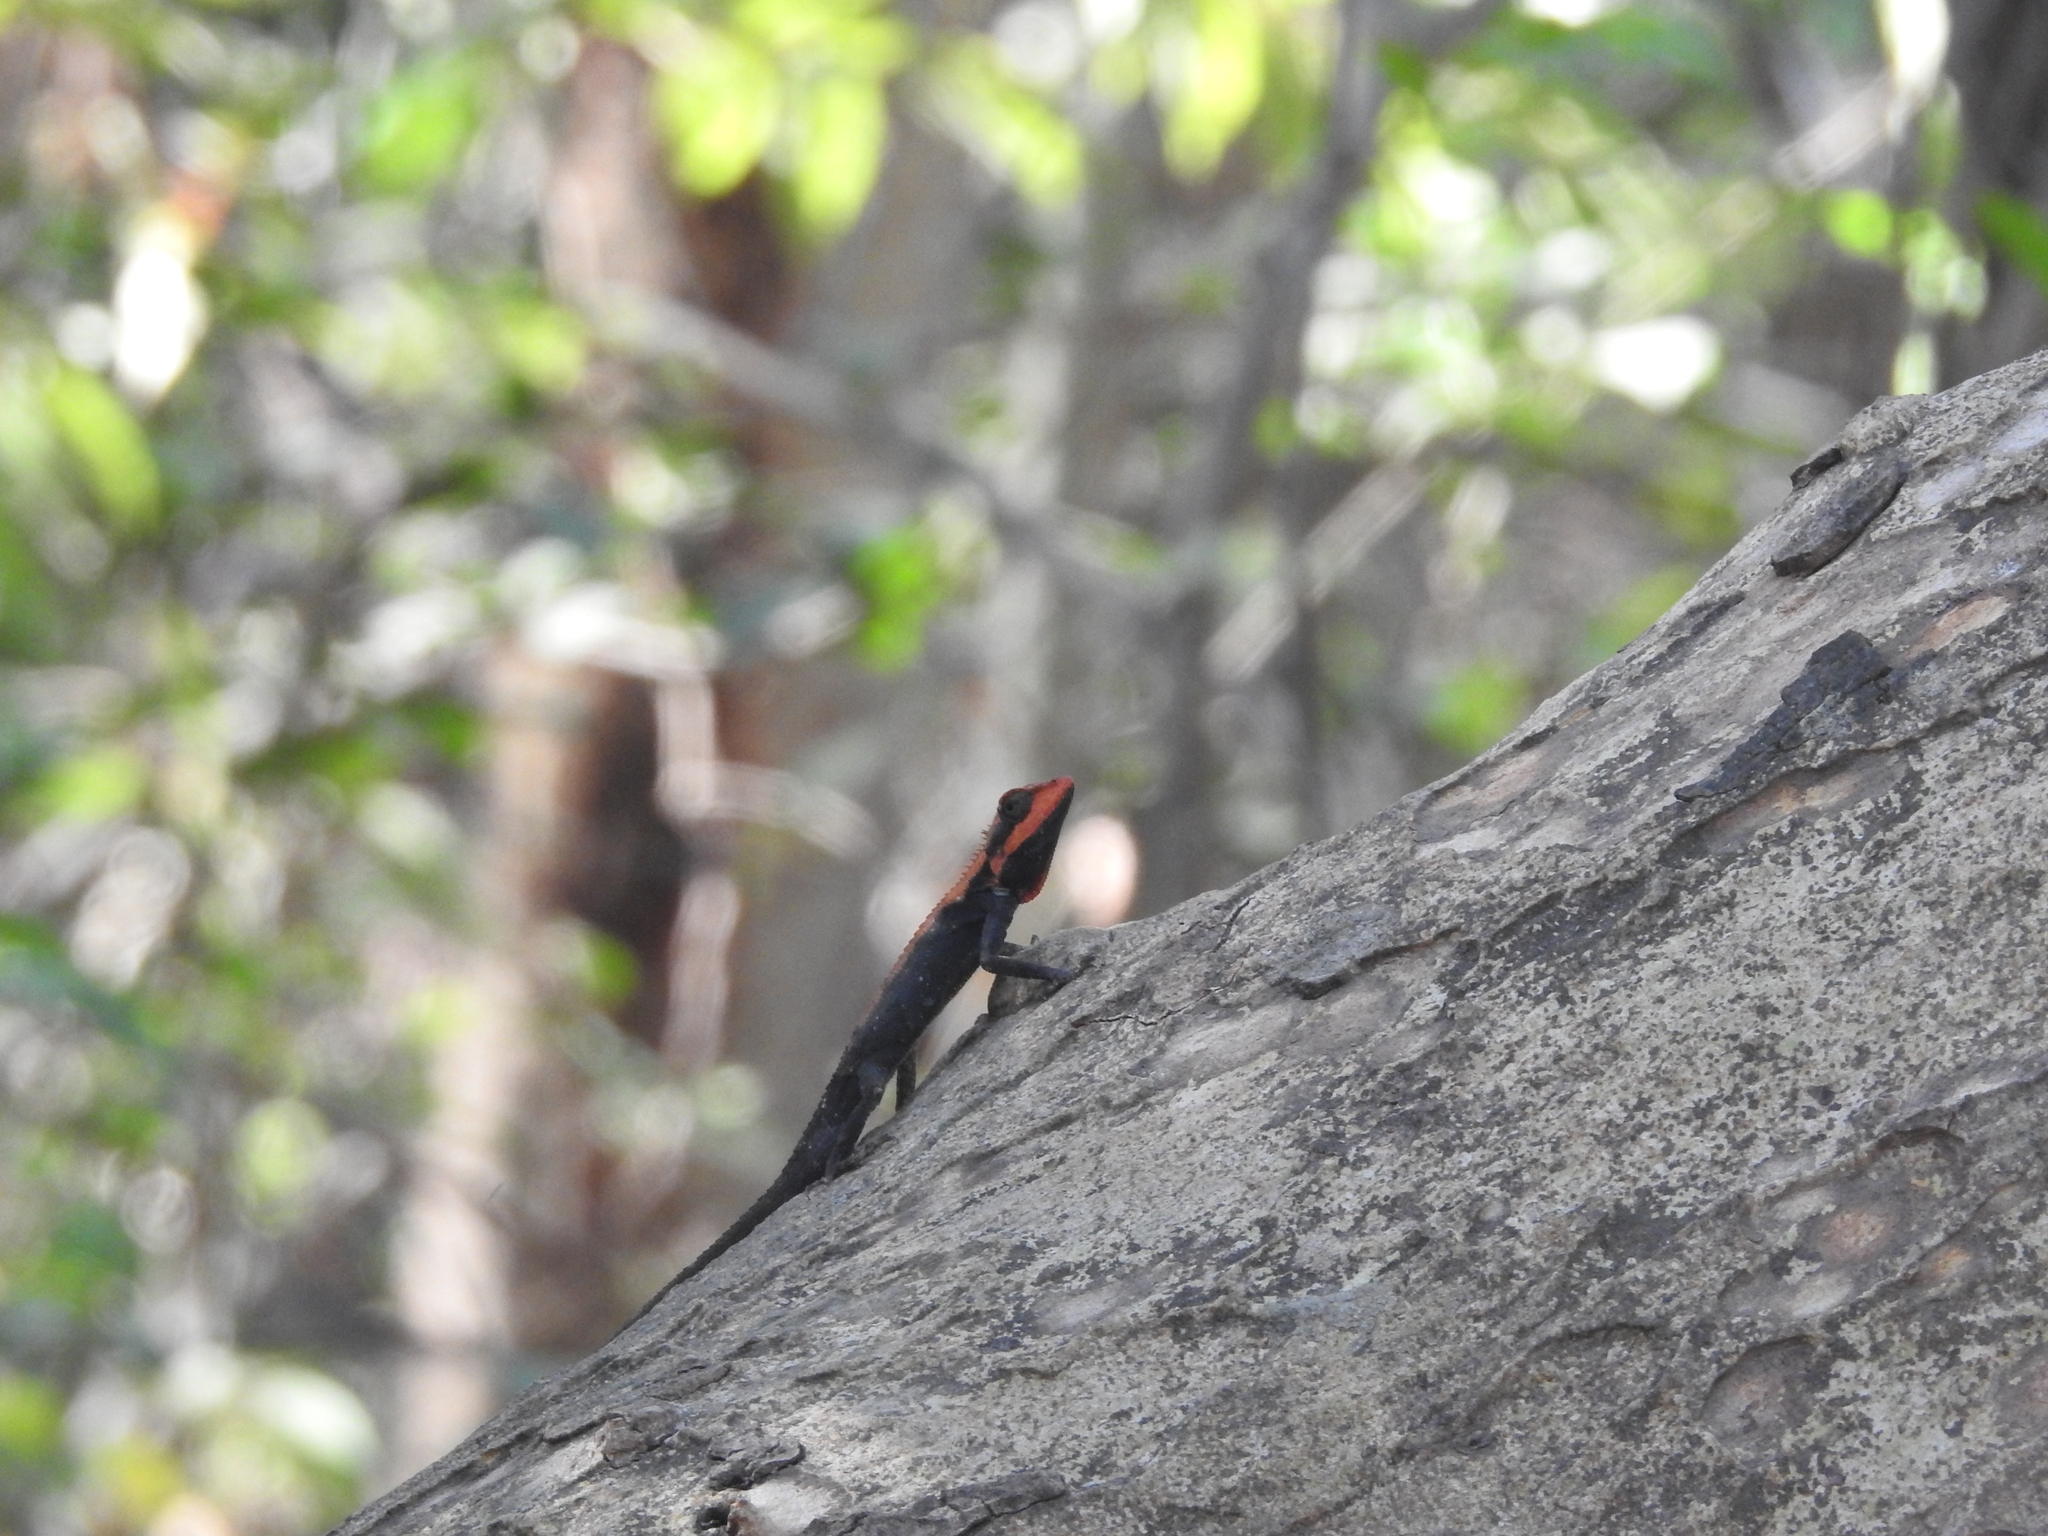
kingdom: Animalia
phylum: Chordata
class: Squamata
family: Agamidae
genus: Monilesaurus
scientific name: Monilesaurus rouxii
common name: Roux's forest lizard
